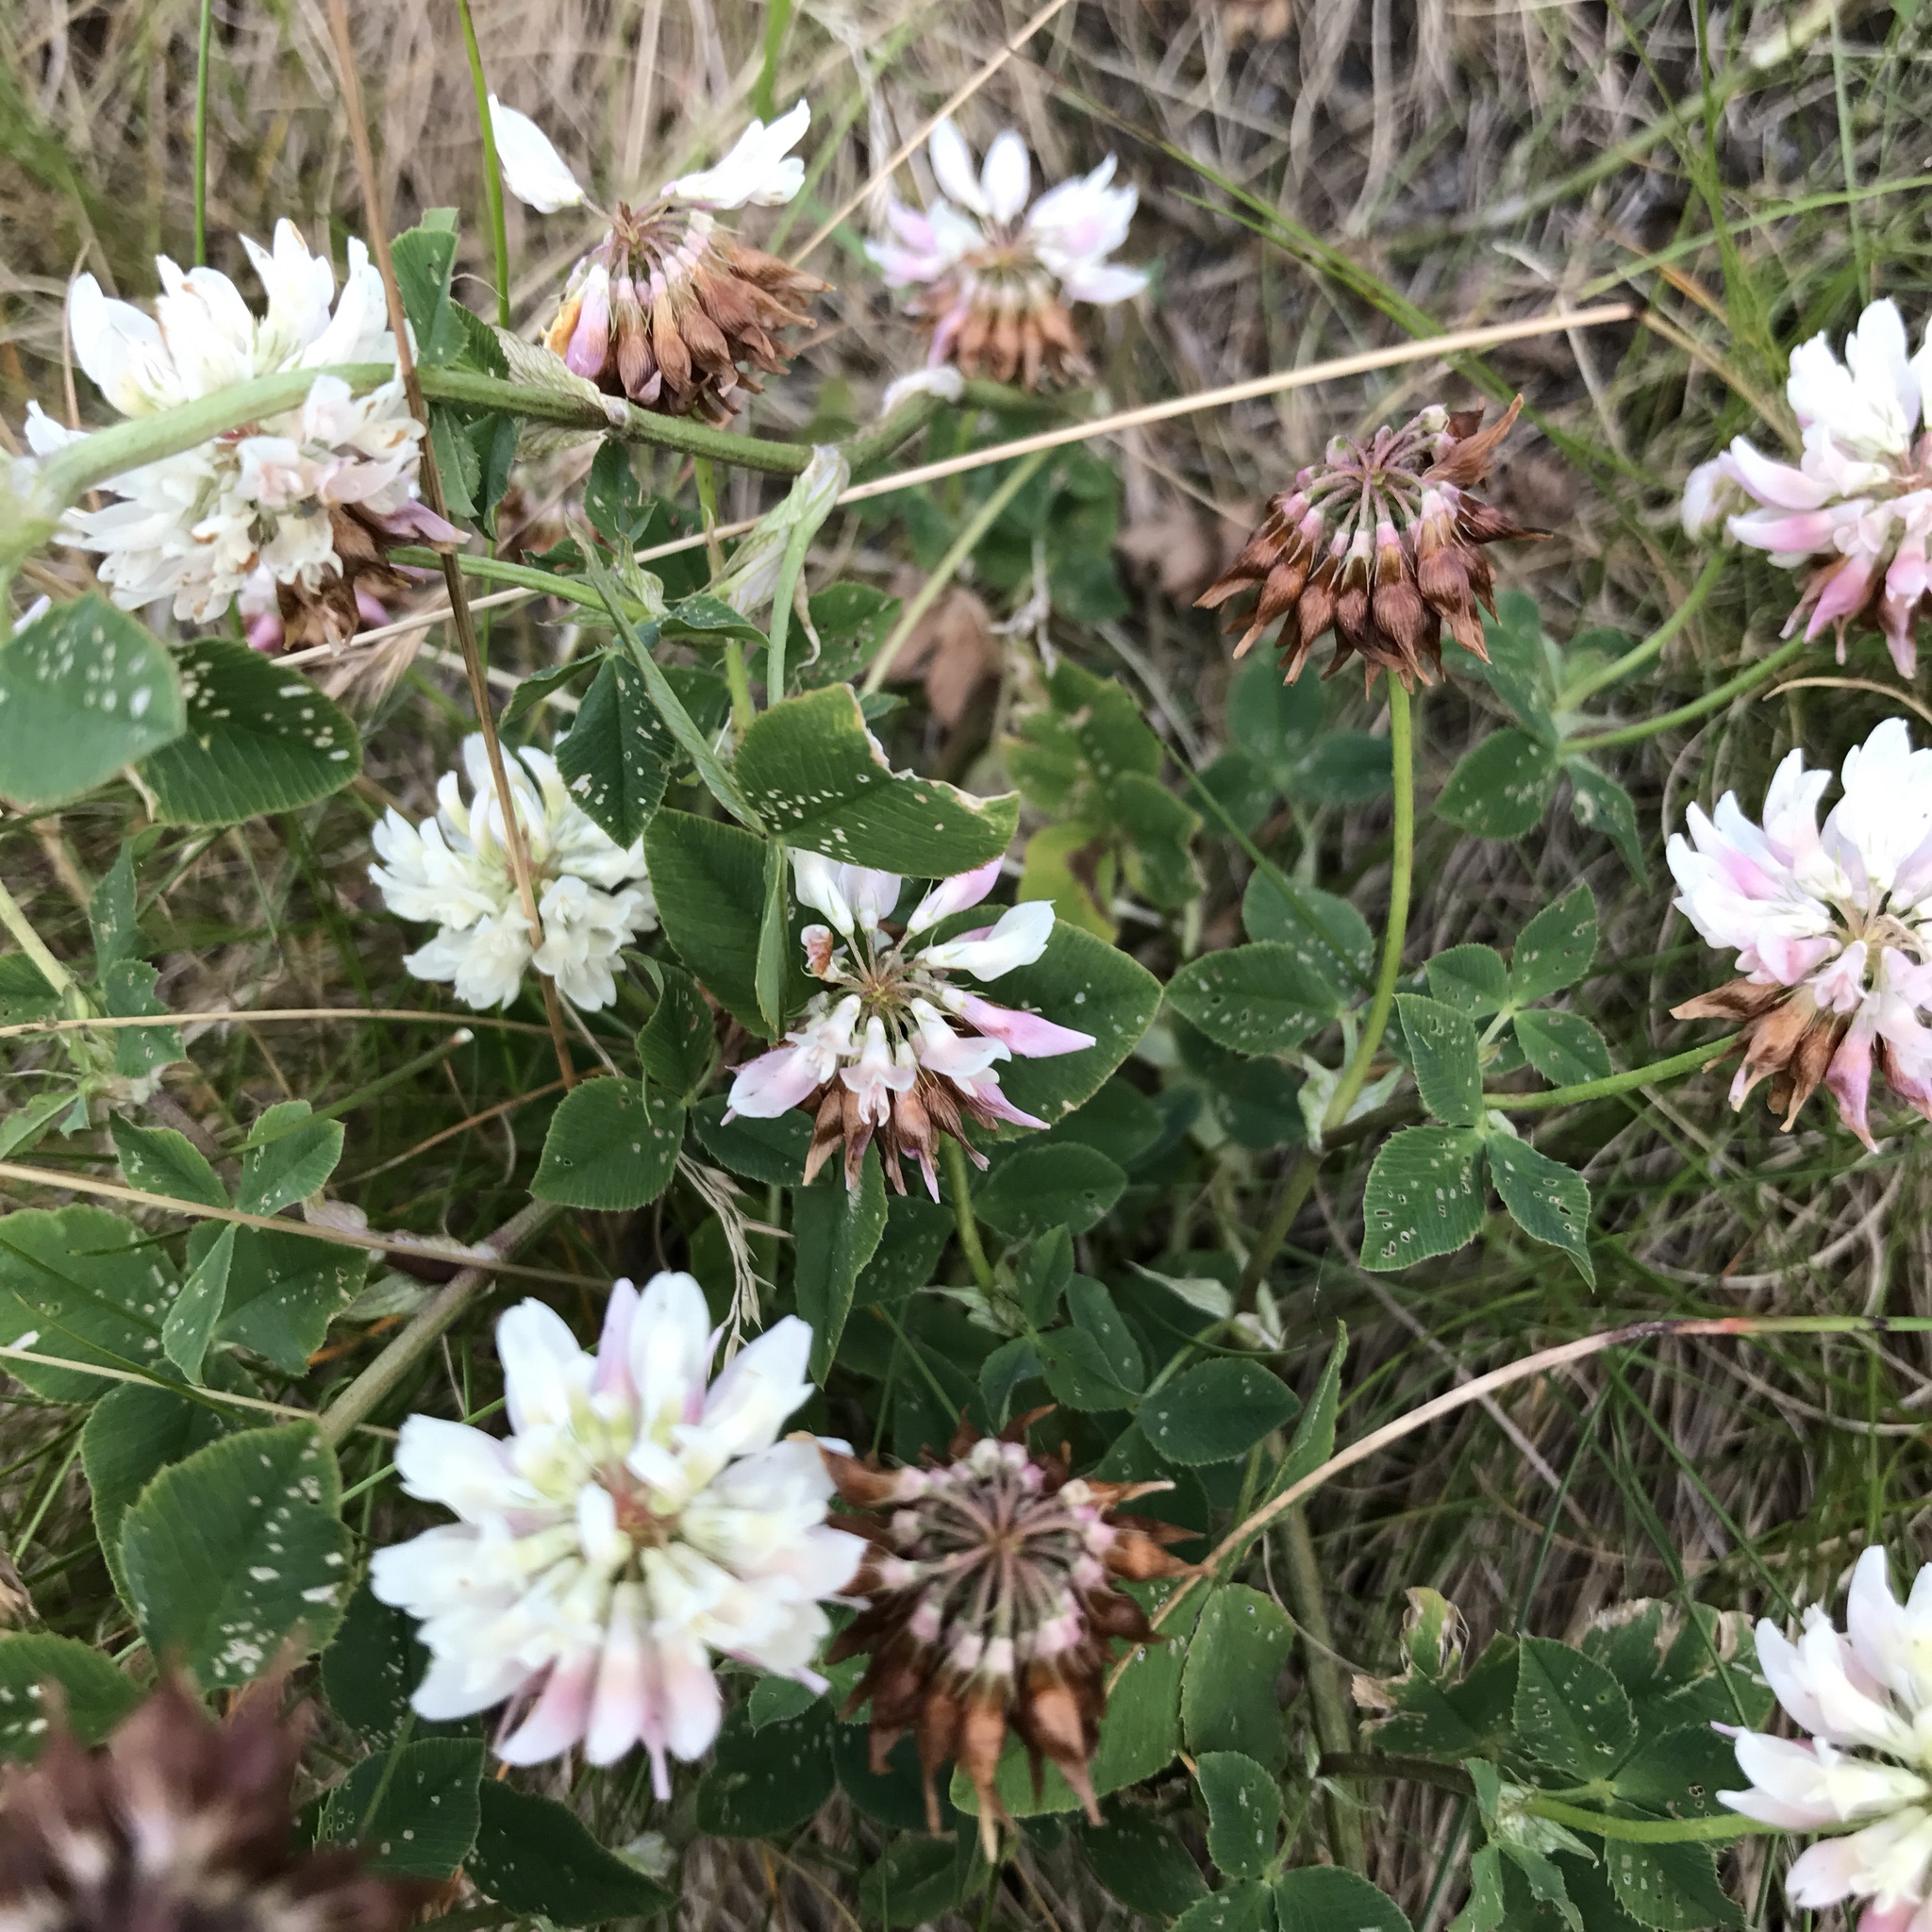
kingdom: Plantae
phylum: Tracheophyta
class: Magnoliopsida
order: Fabales
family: Fabaceae
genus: Trifolium
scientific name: Trifolium repens
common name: White clover
